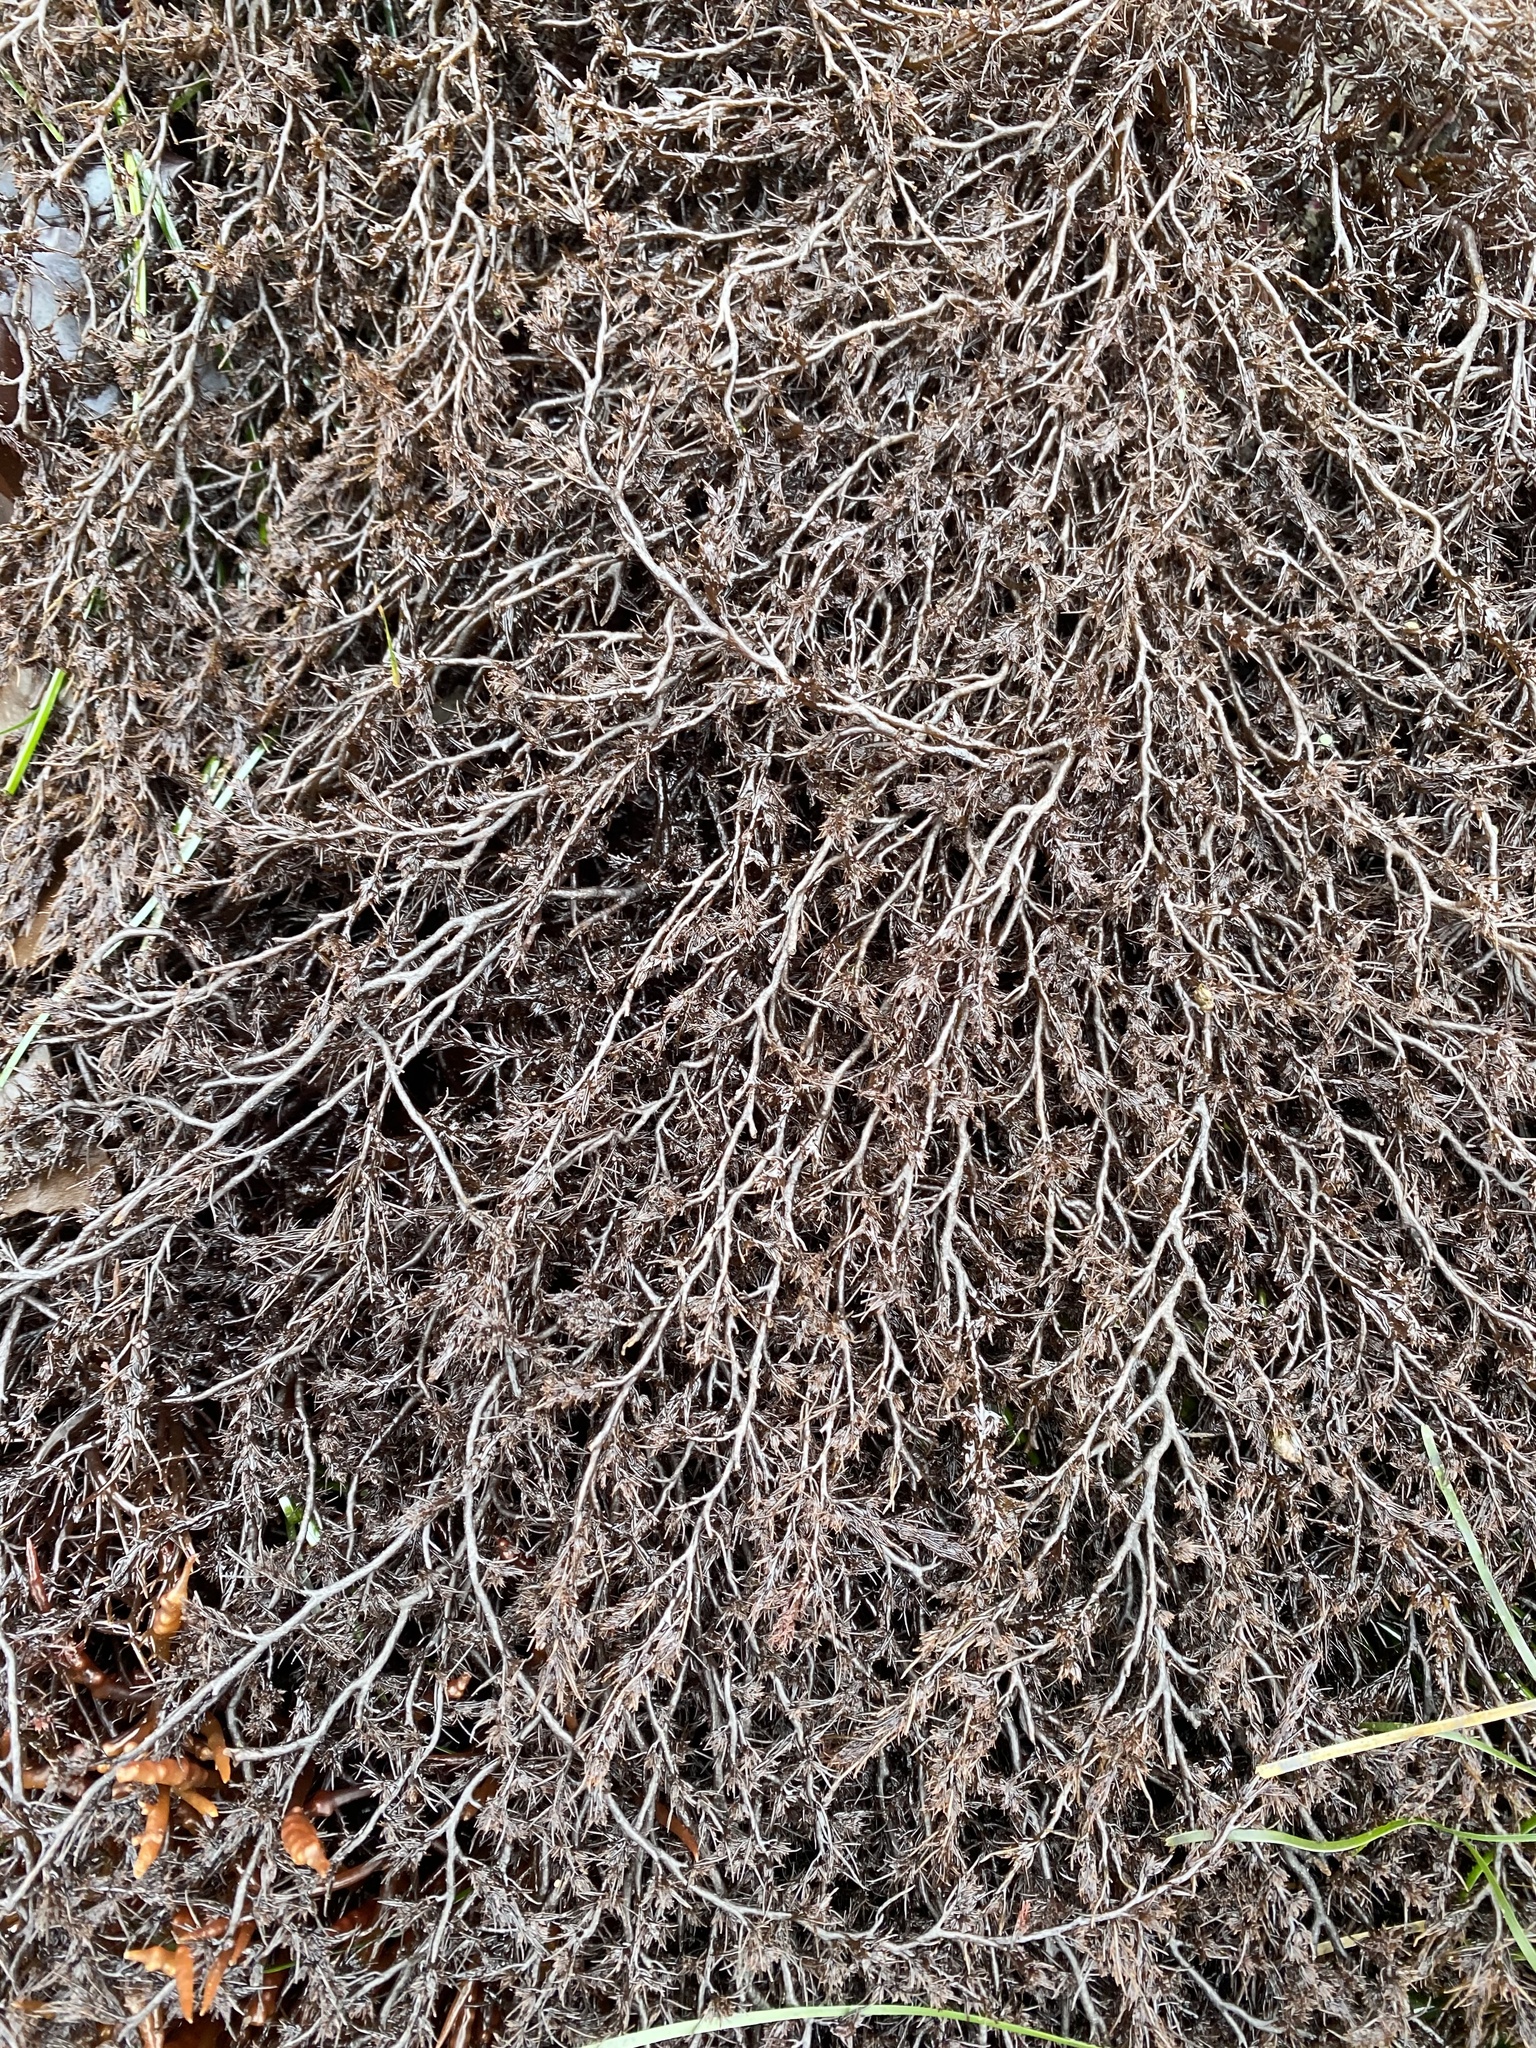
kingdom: Plantae
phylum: Rhodophyta
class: Florideophyceae
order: Ceramiales
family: Rhodomelaceae
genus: Odonthalia
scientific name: Odonthalia floccosa
